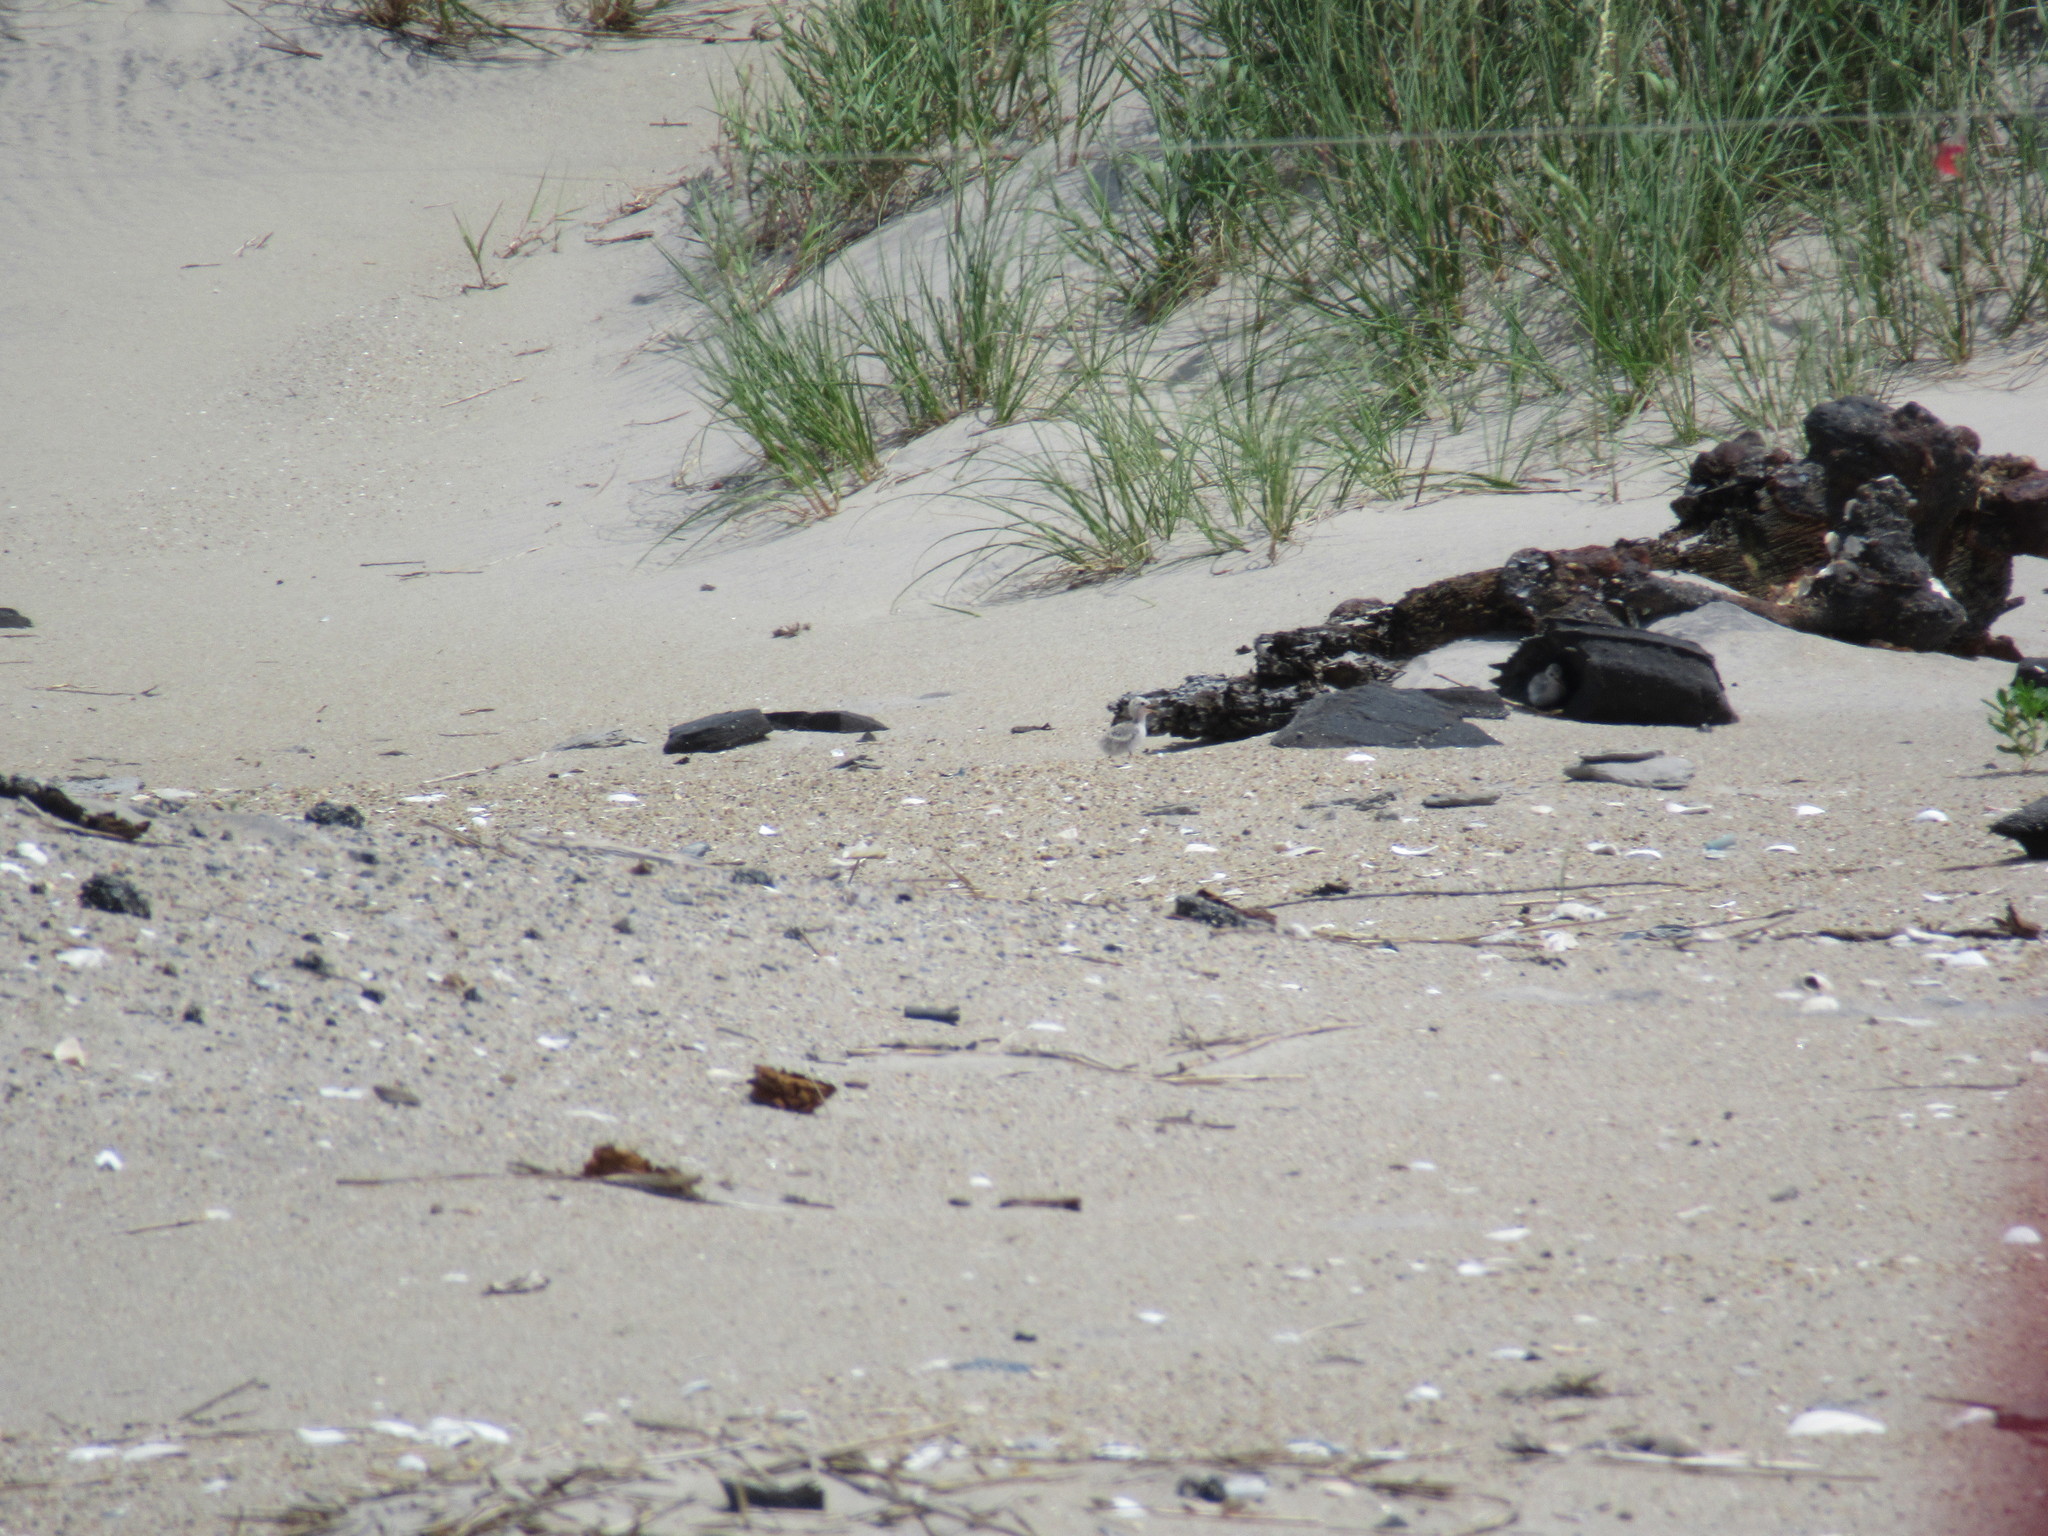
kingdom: Animalia
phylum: Chordata
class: Aves
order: Charadriiformes
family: Laridae
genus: Sternula
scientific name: Sternula antillarum
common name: Least tern
